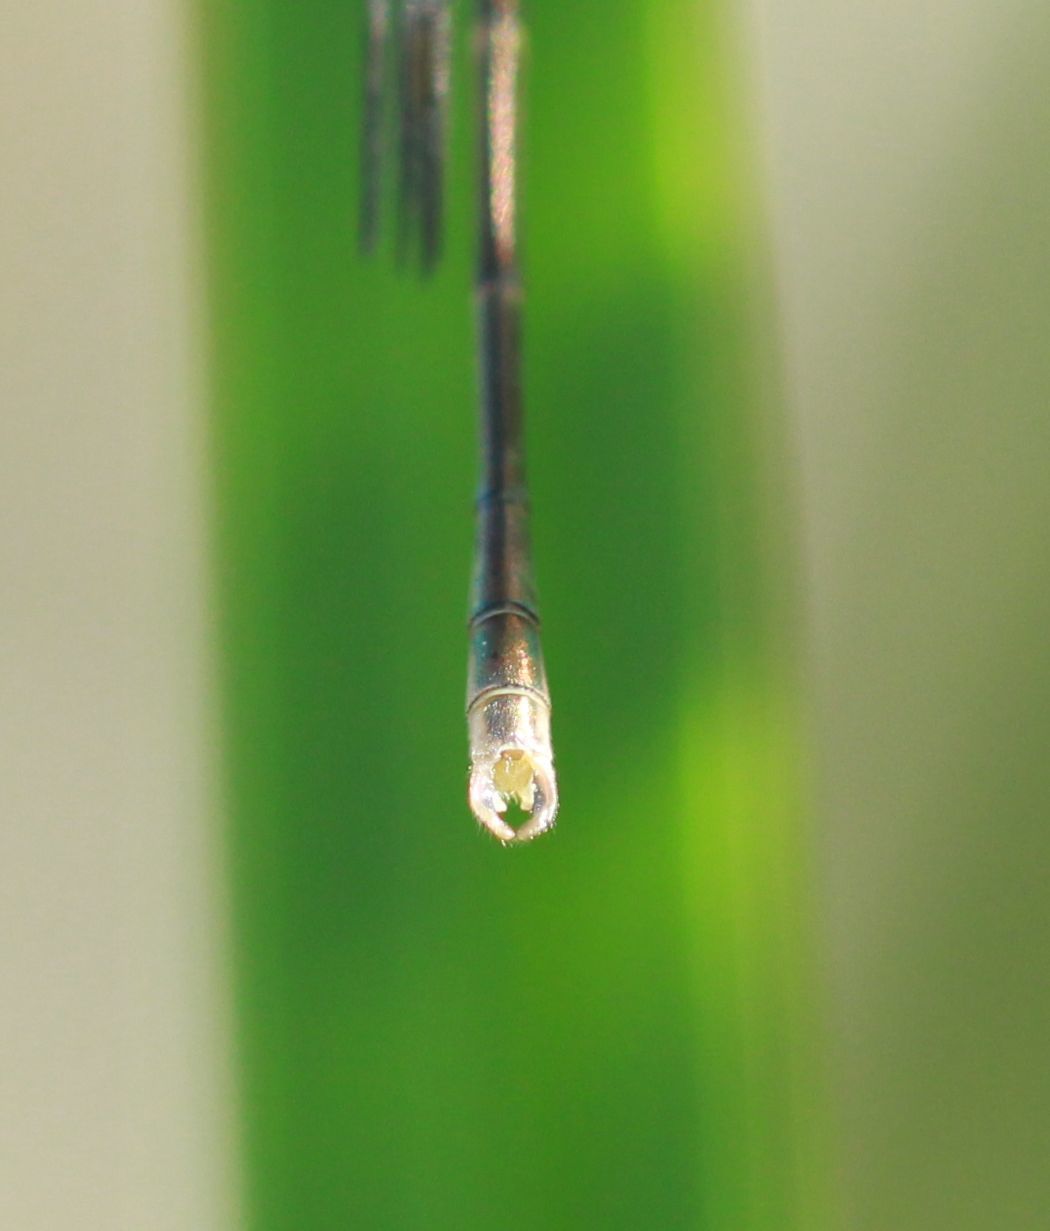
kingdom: Animalia
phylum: Arthropoda
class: Insecta
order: Odonata
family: Lestidae
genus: Lestes
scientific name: Lestes congener
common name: Spotted spreadwing
